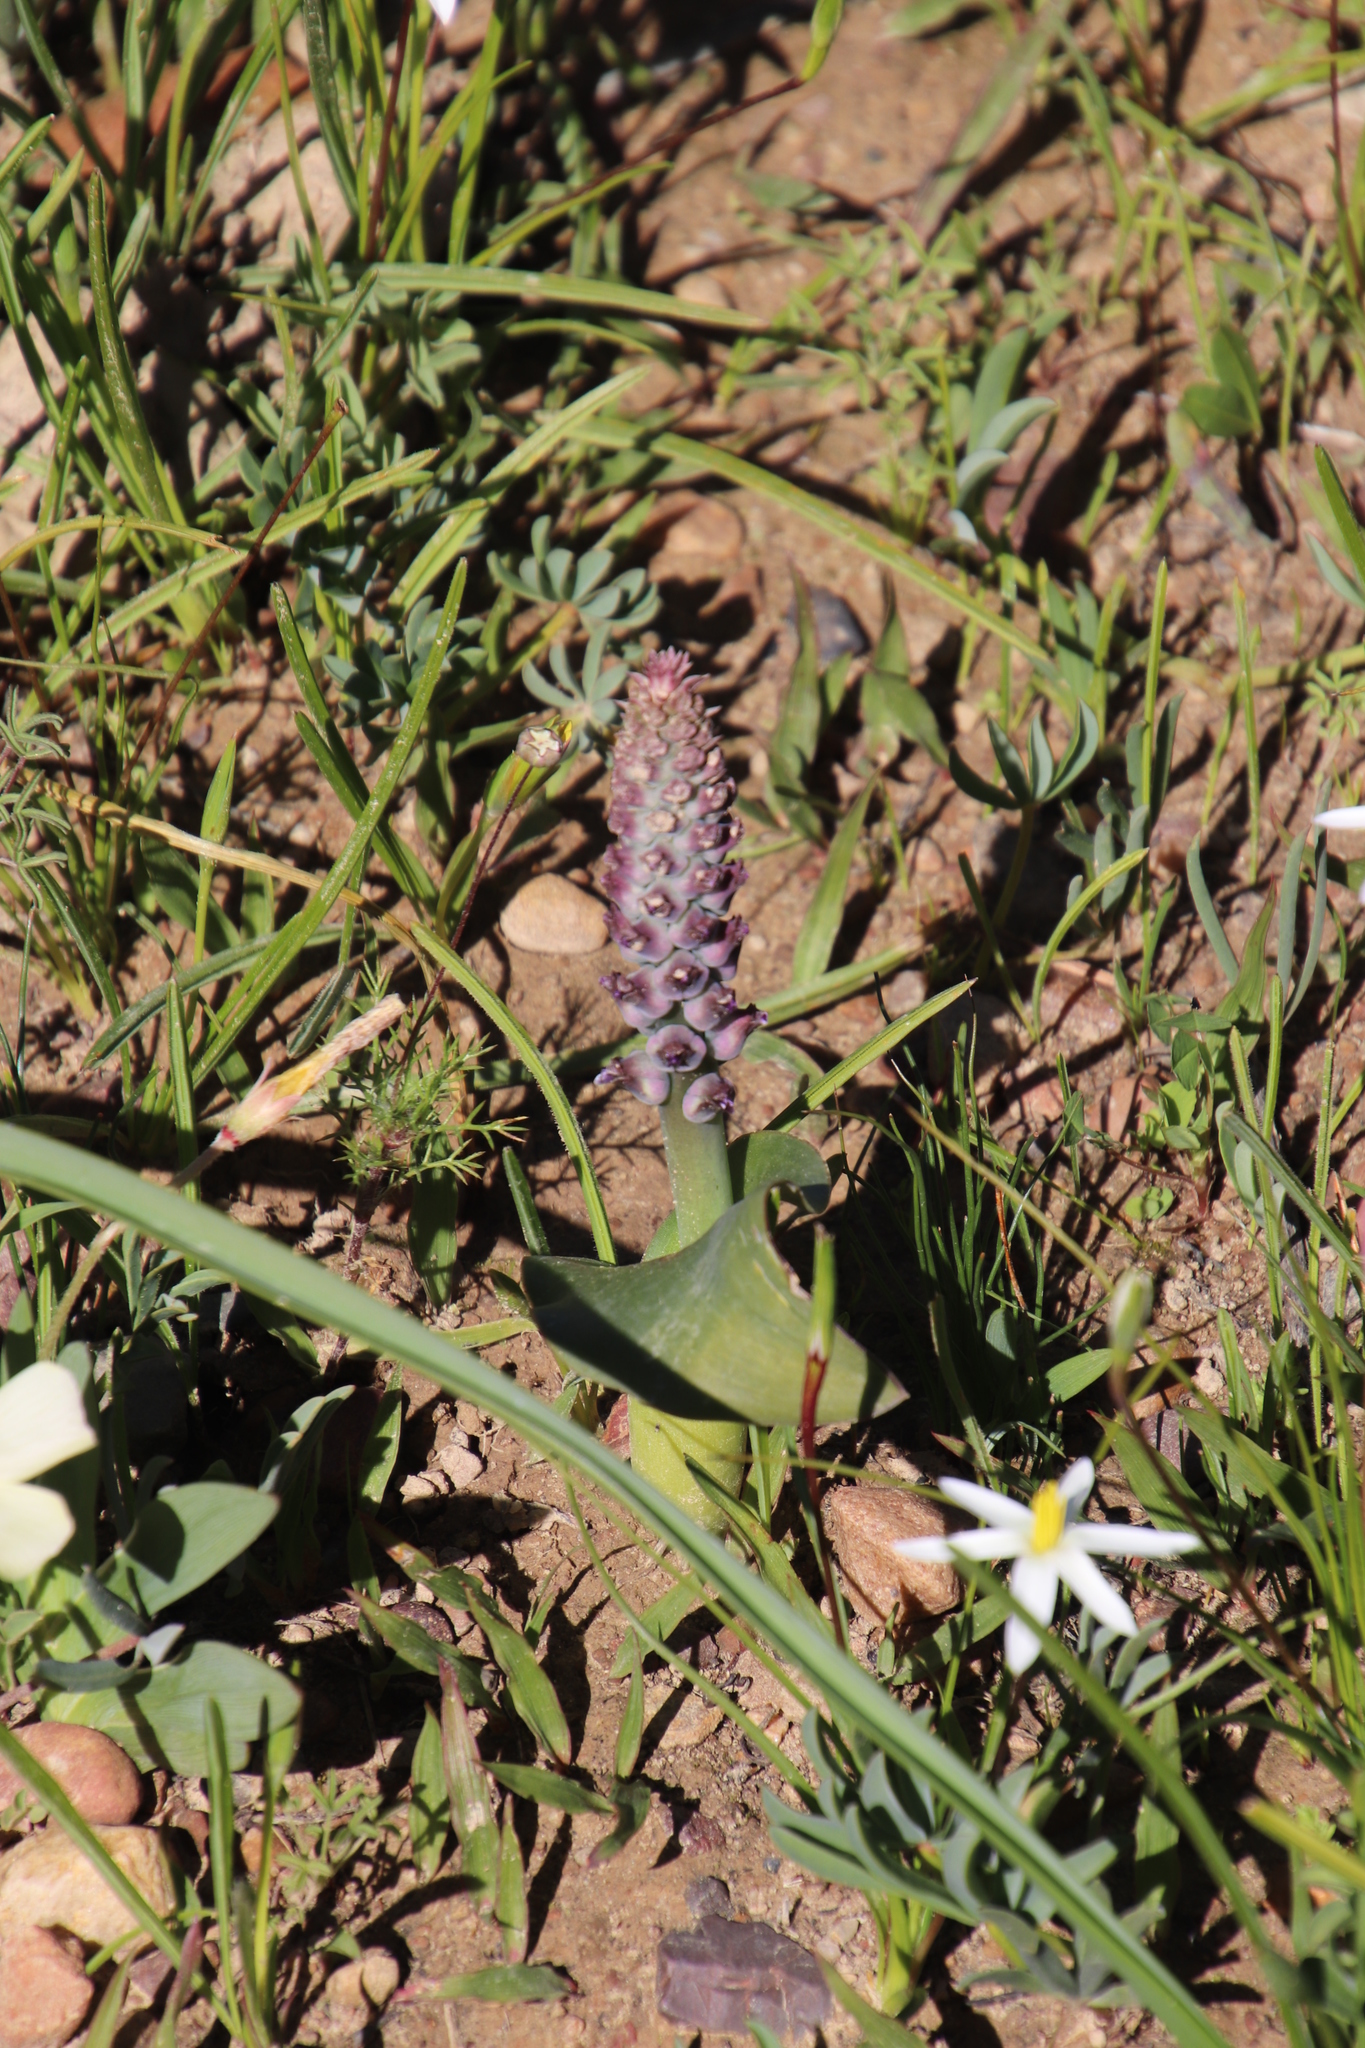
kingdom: Plantae
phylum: Tracheophyta
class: Liliopsida
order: Asparagales
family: Asparagaceae
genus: Lachenalia
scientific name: Lachenalia elegans
